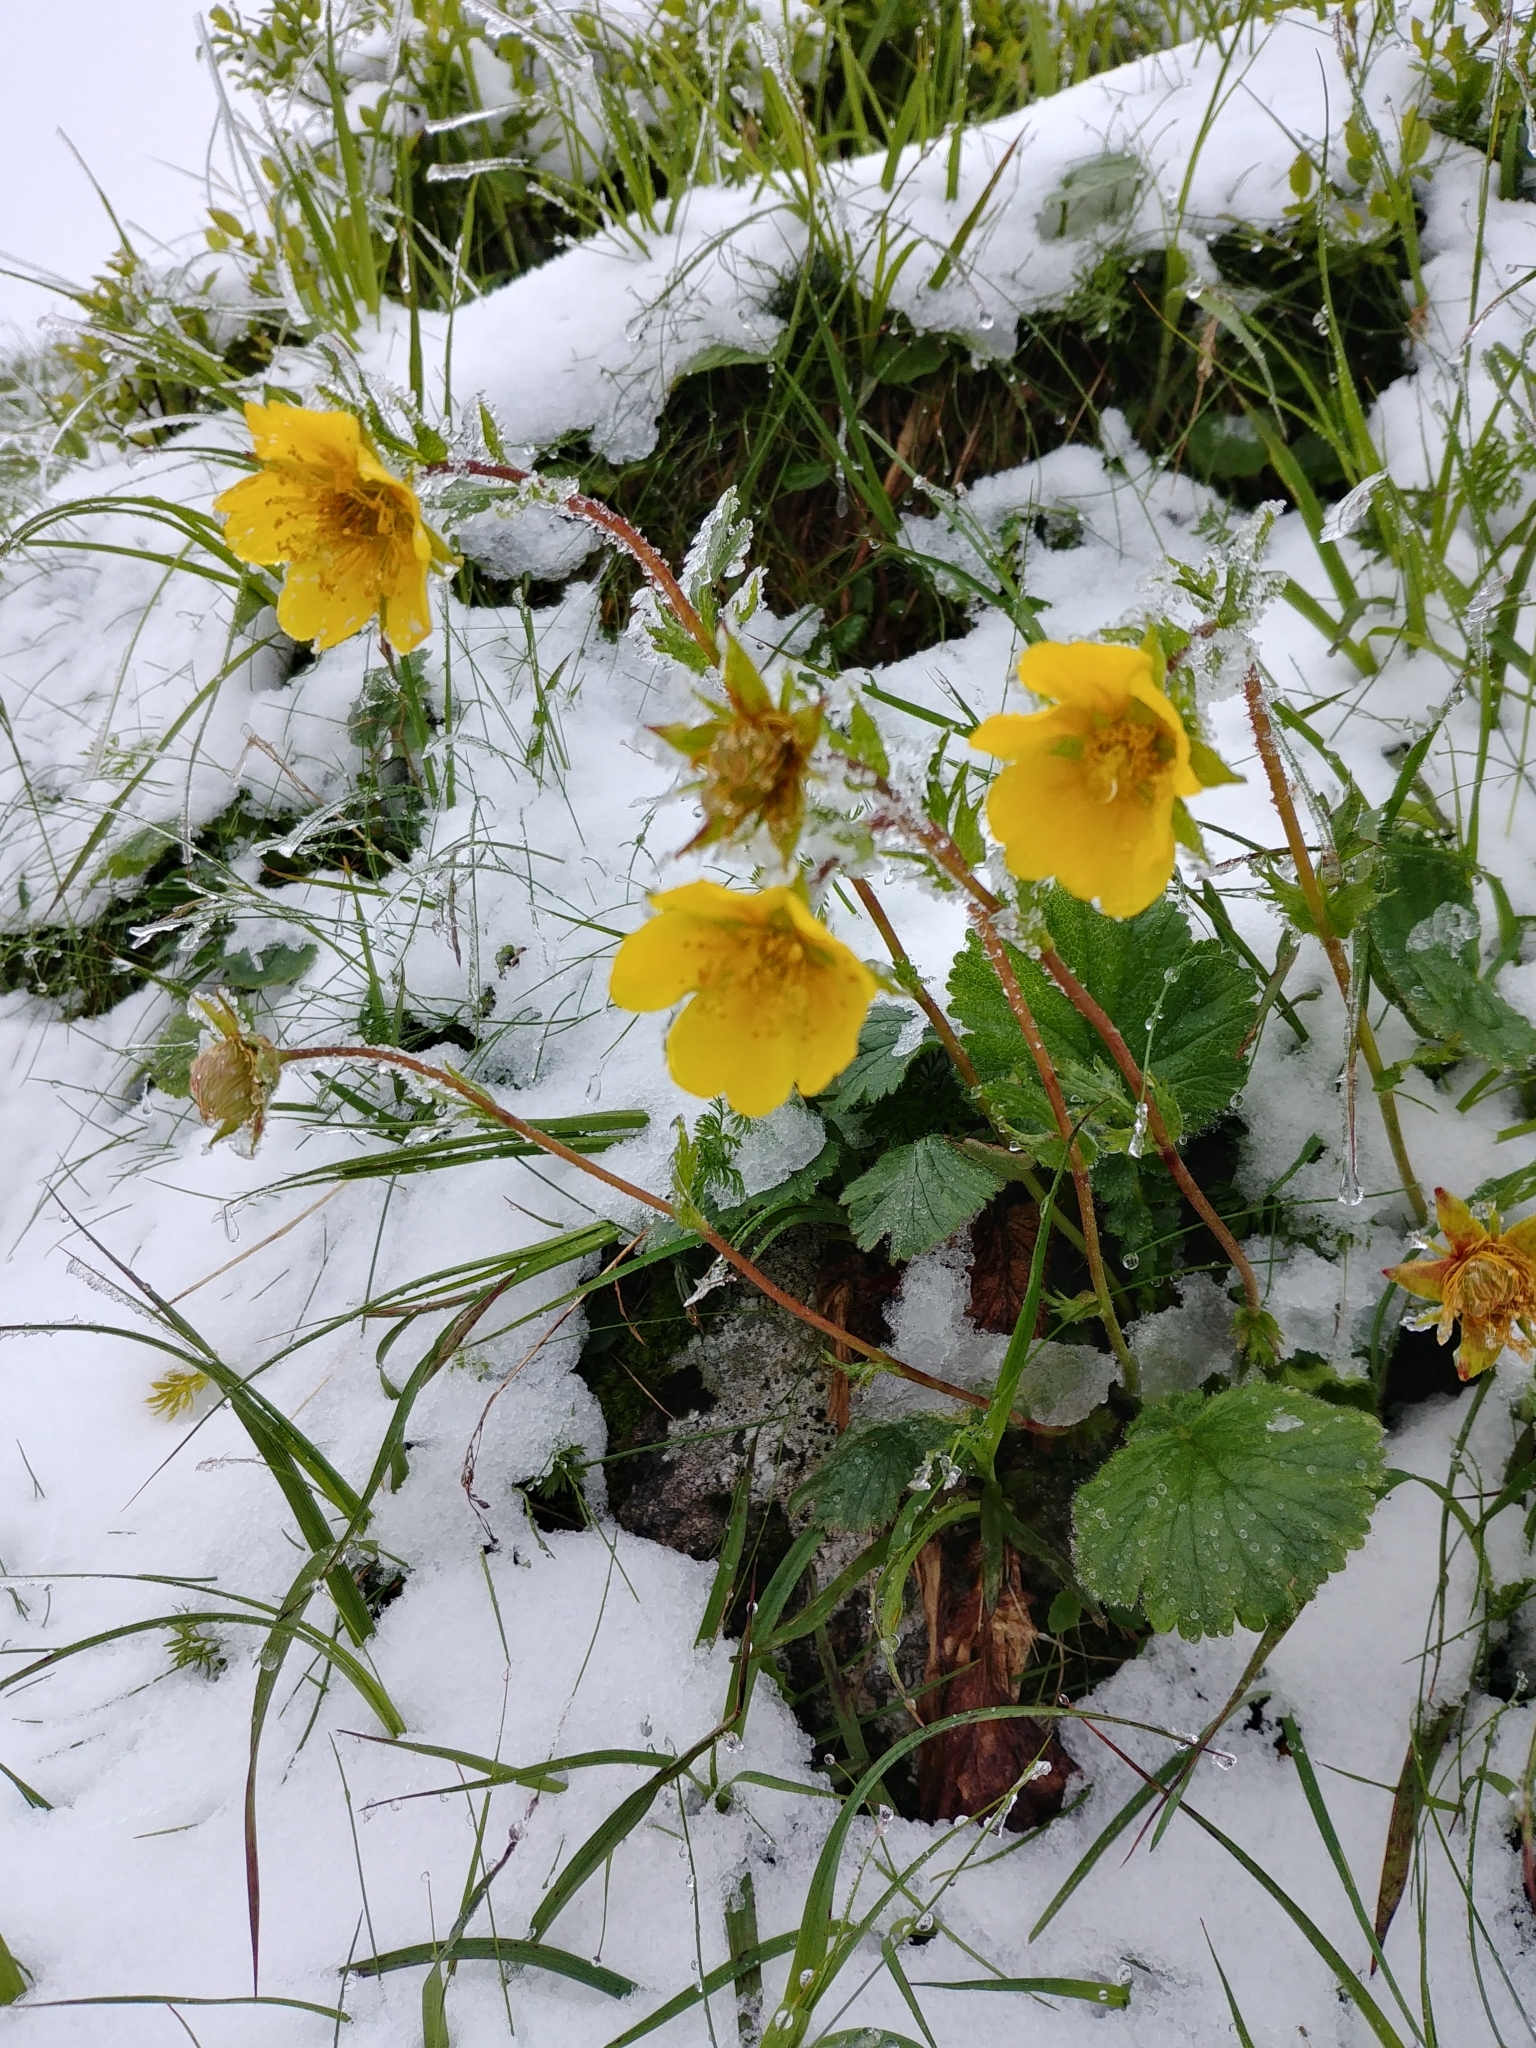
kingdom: Plantae
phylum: Tracheophyta
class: Magnoliopsida
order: Rosales
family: Rosaceae
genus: Geum
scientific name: Geum montanum
